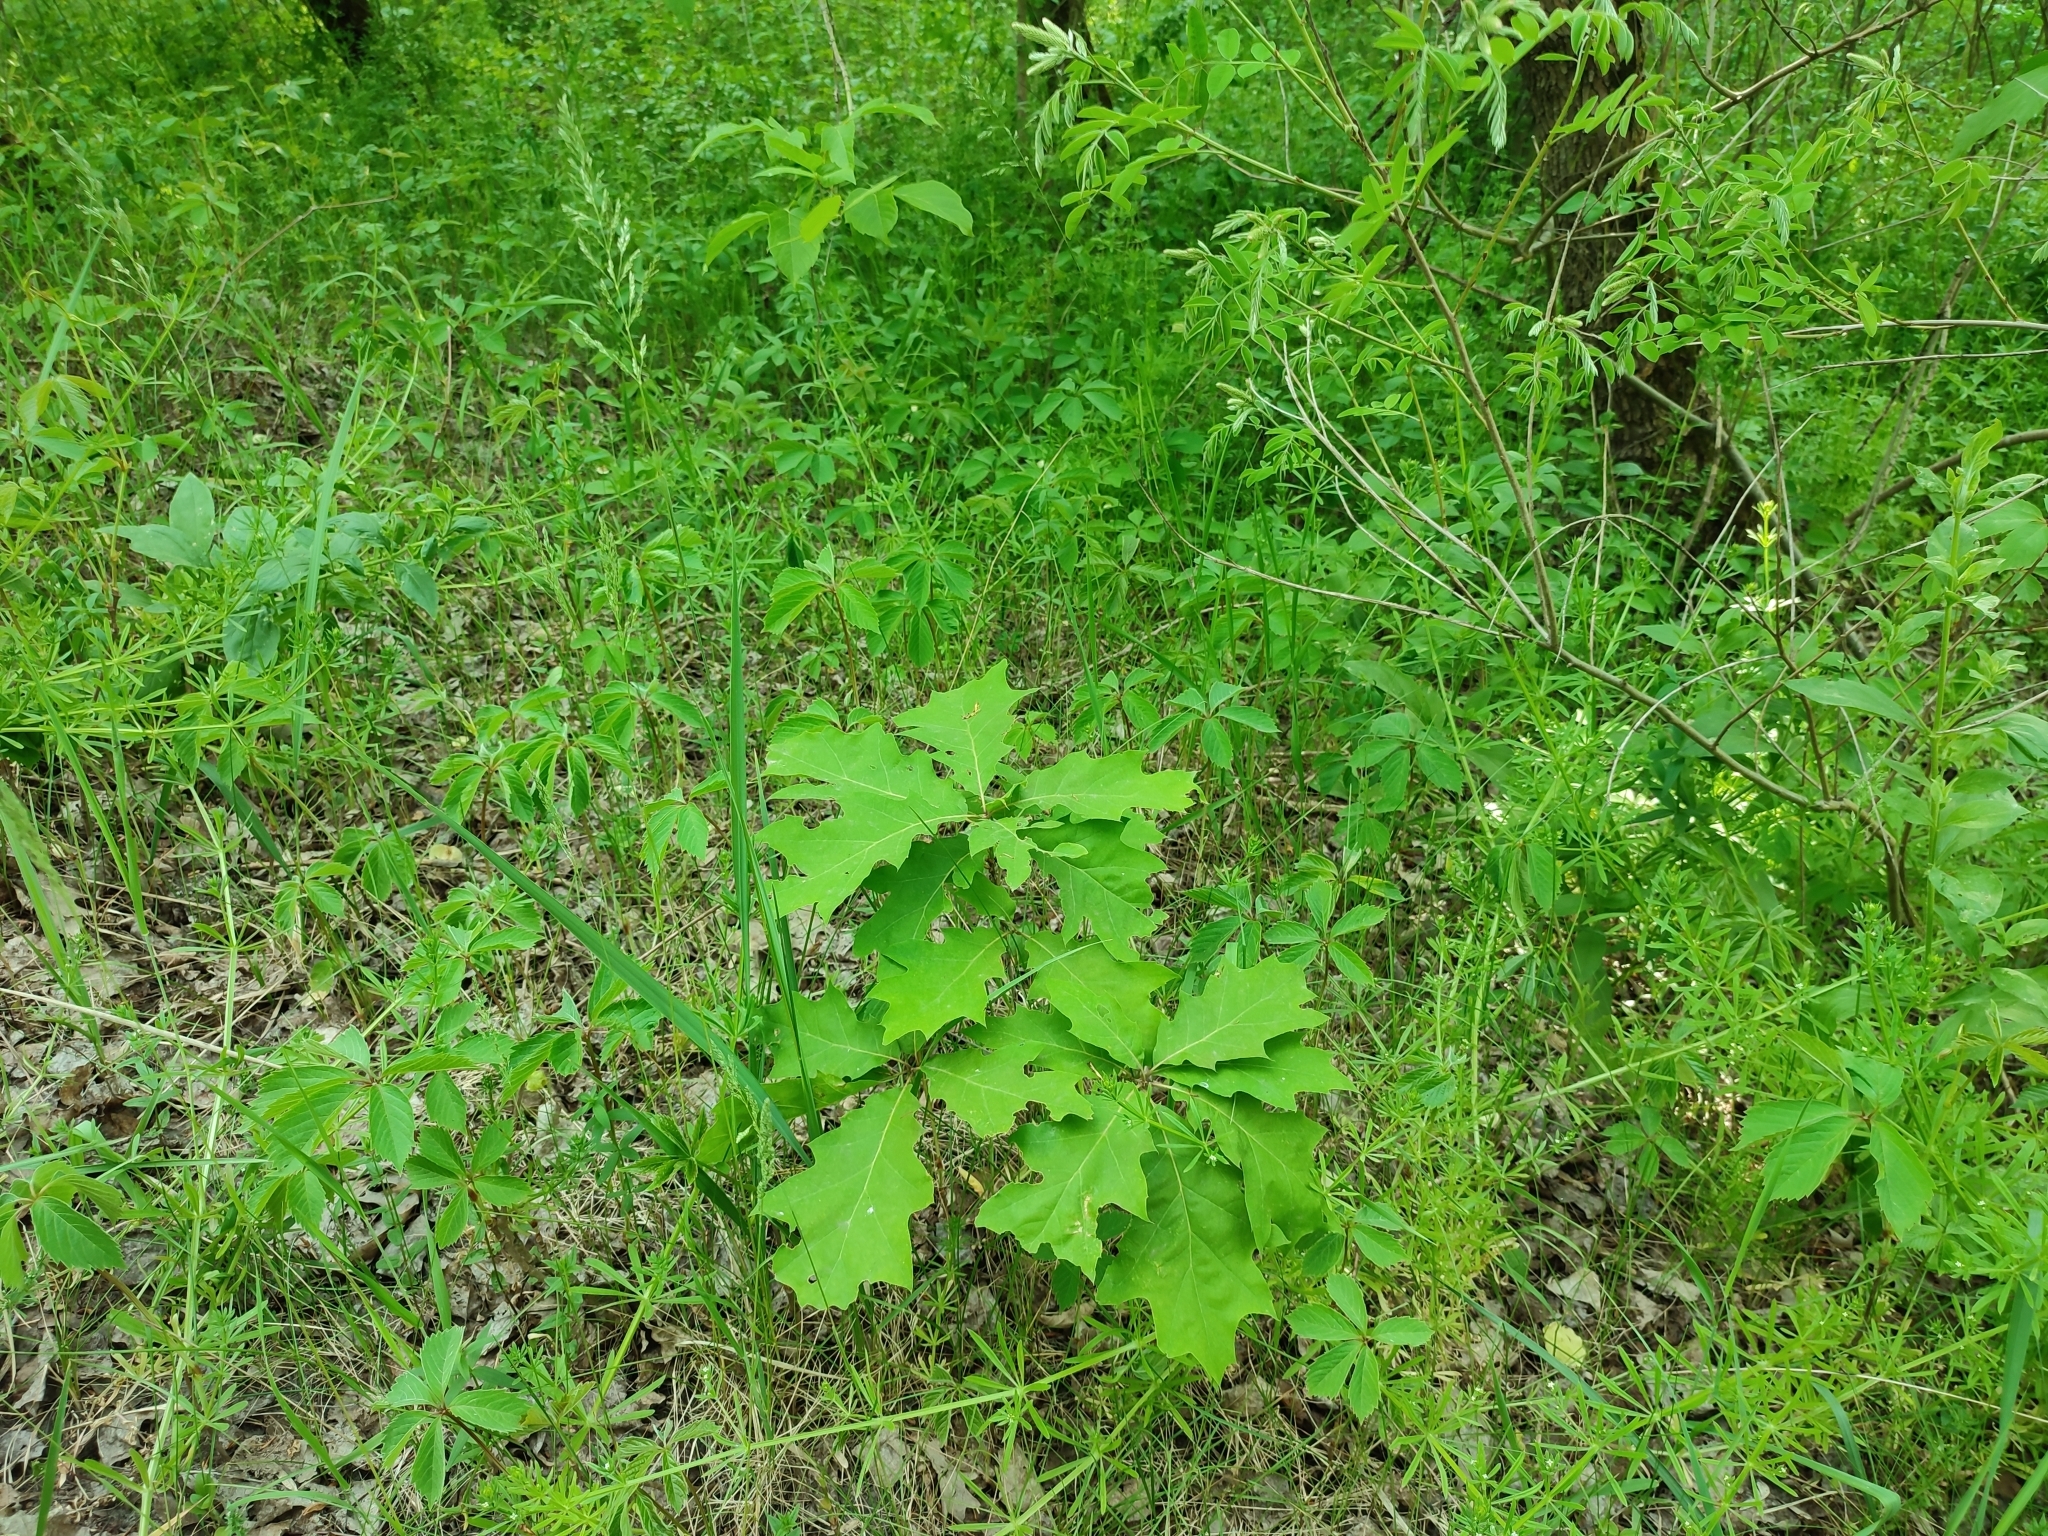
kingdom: Plantae
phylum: Tracheophyta
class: Magnoliopsida
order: Fagales
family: Fagaceae
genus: Quercus
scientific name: Quercus rubra
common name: Red oak
